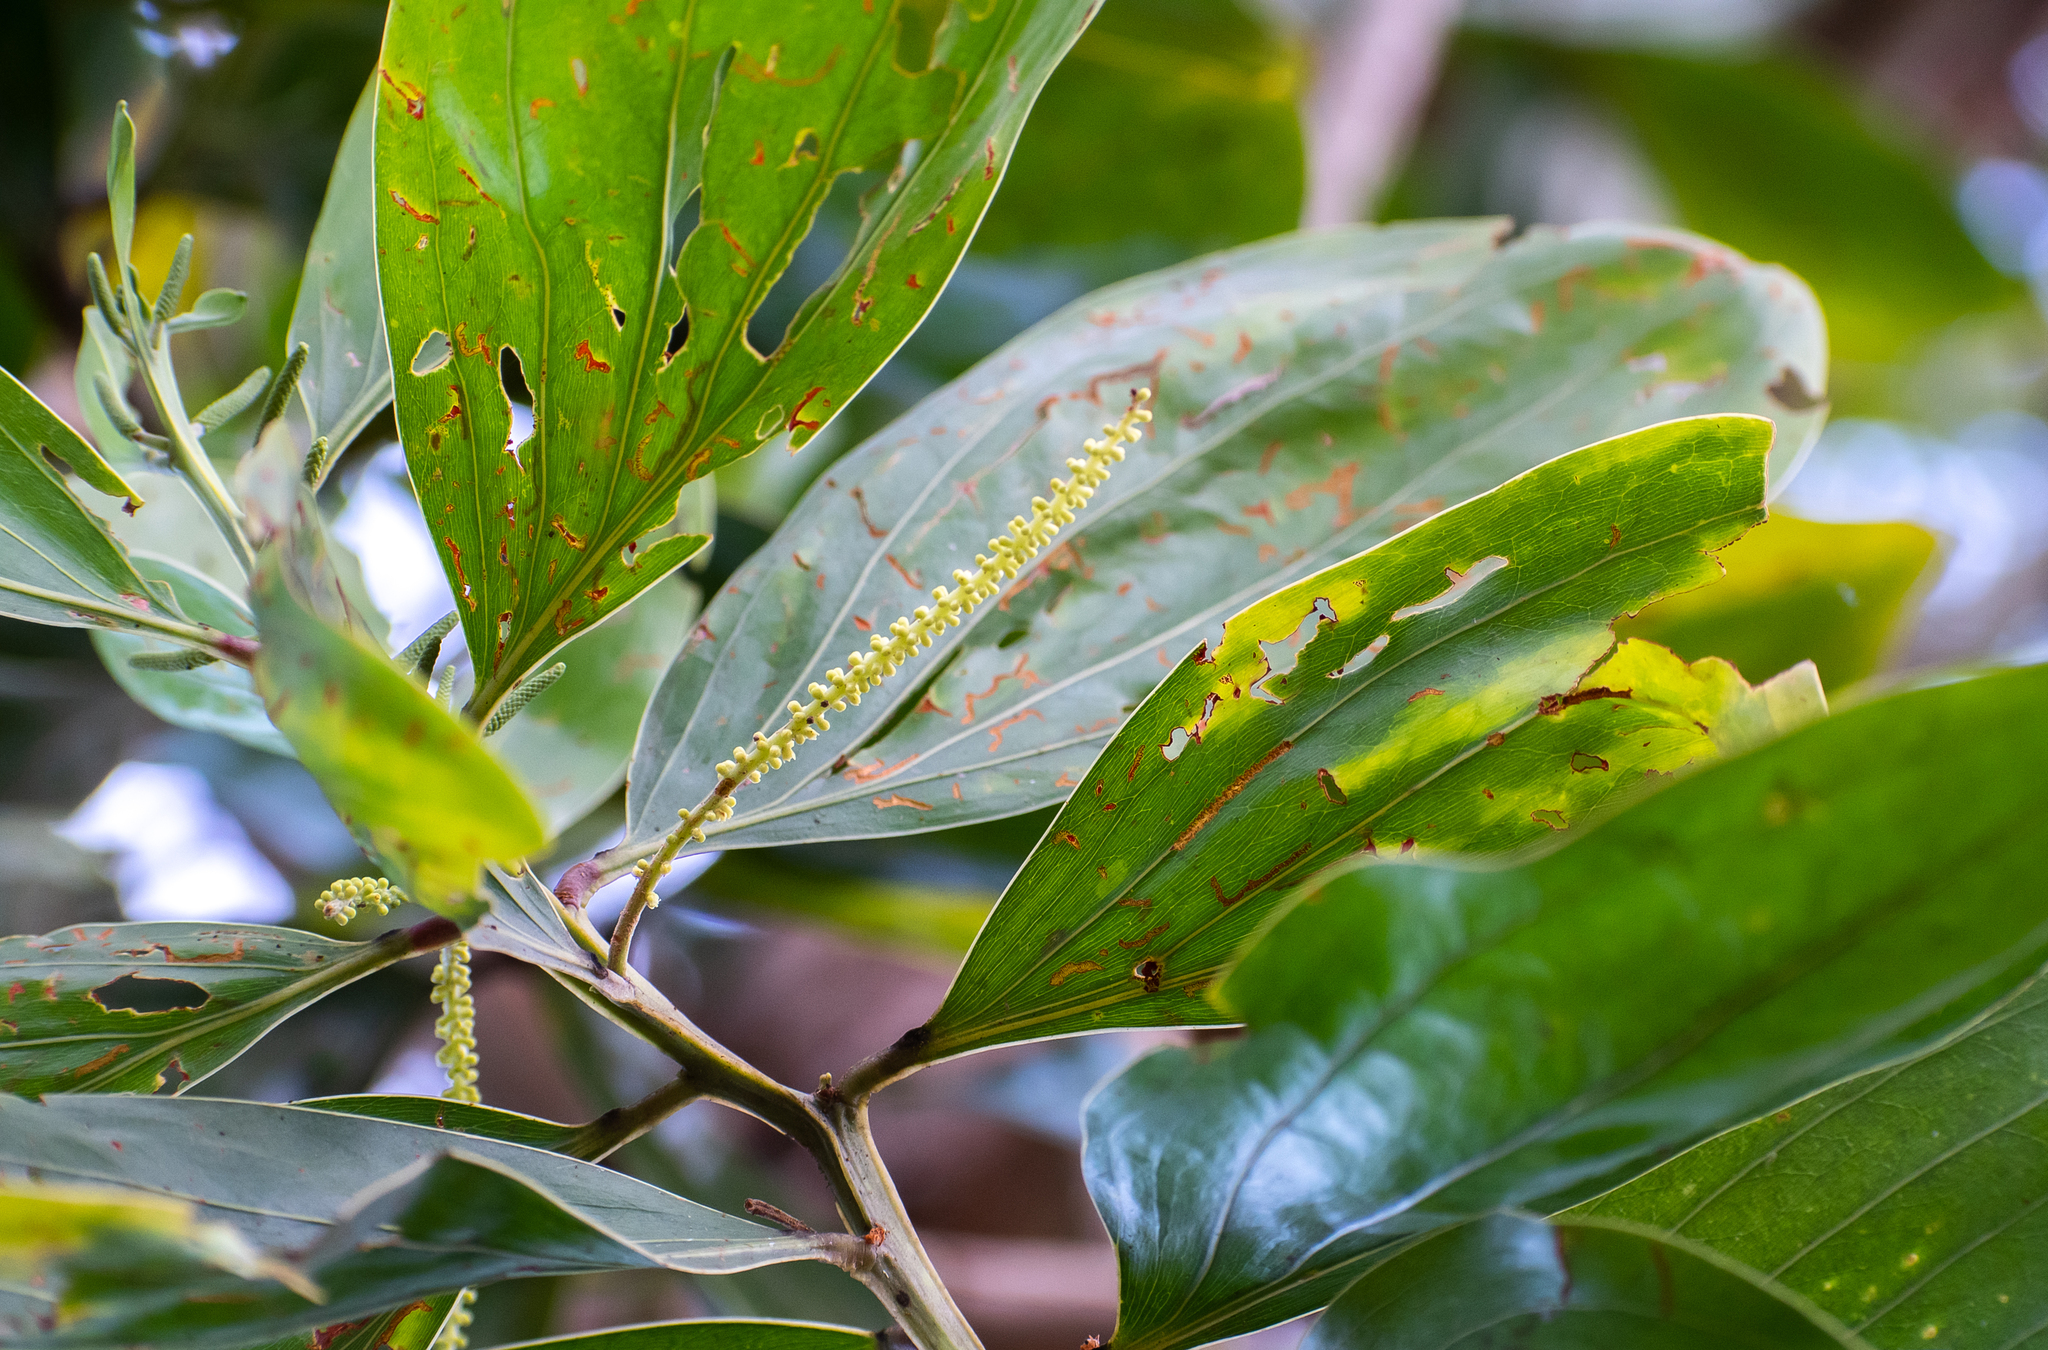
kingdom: Plantae
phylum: Tracheophyta
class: Magnoliopsida
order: Fabales
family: Fabaceae
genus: Acacia
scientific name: Acacia mangium
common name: Black wattle
